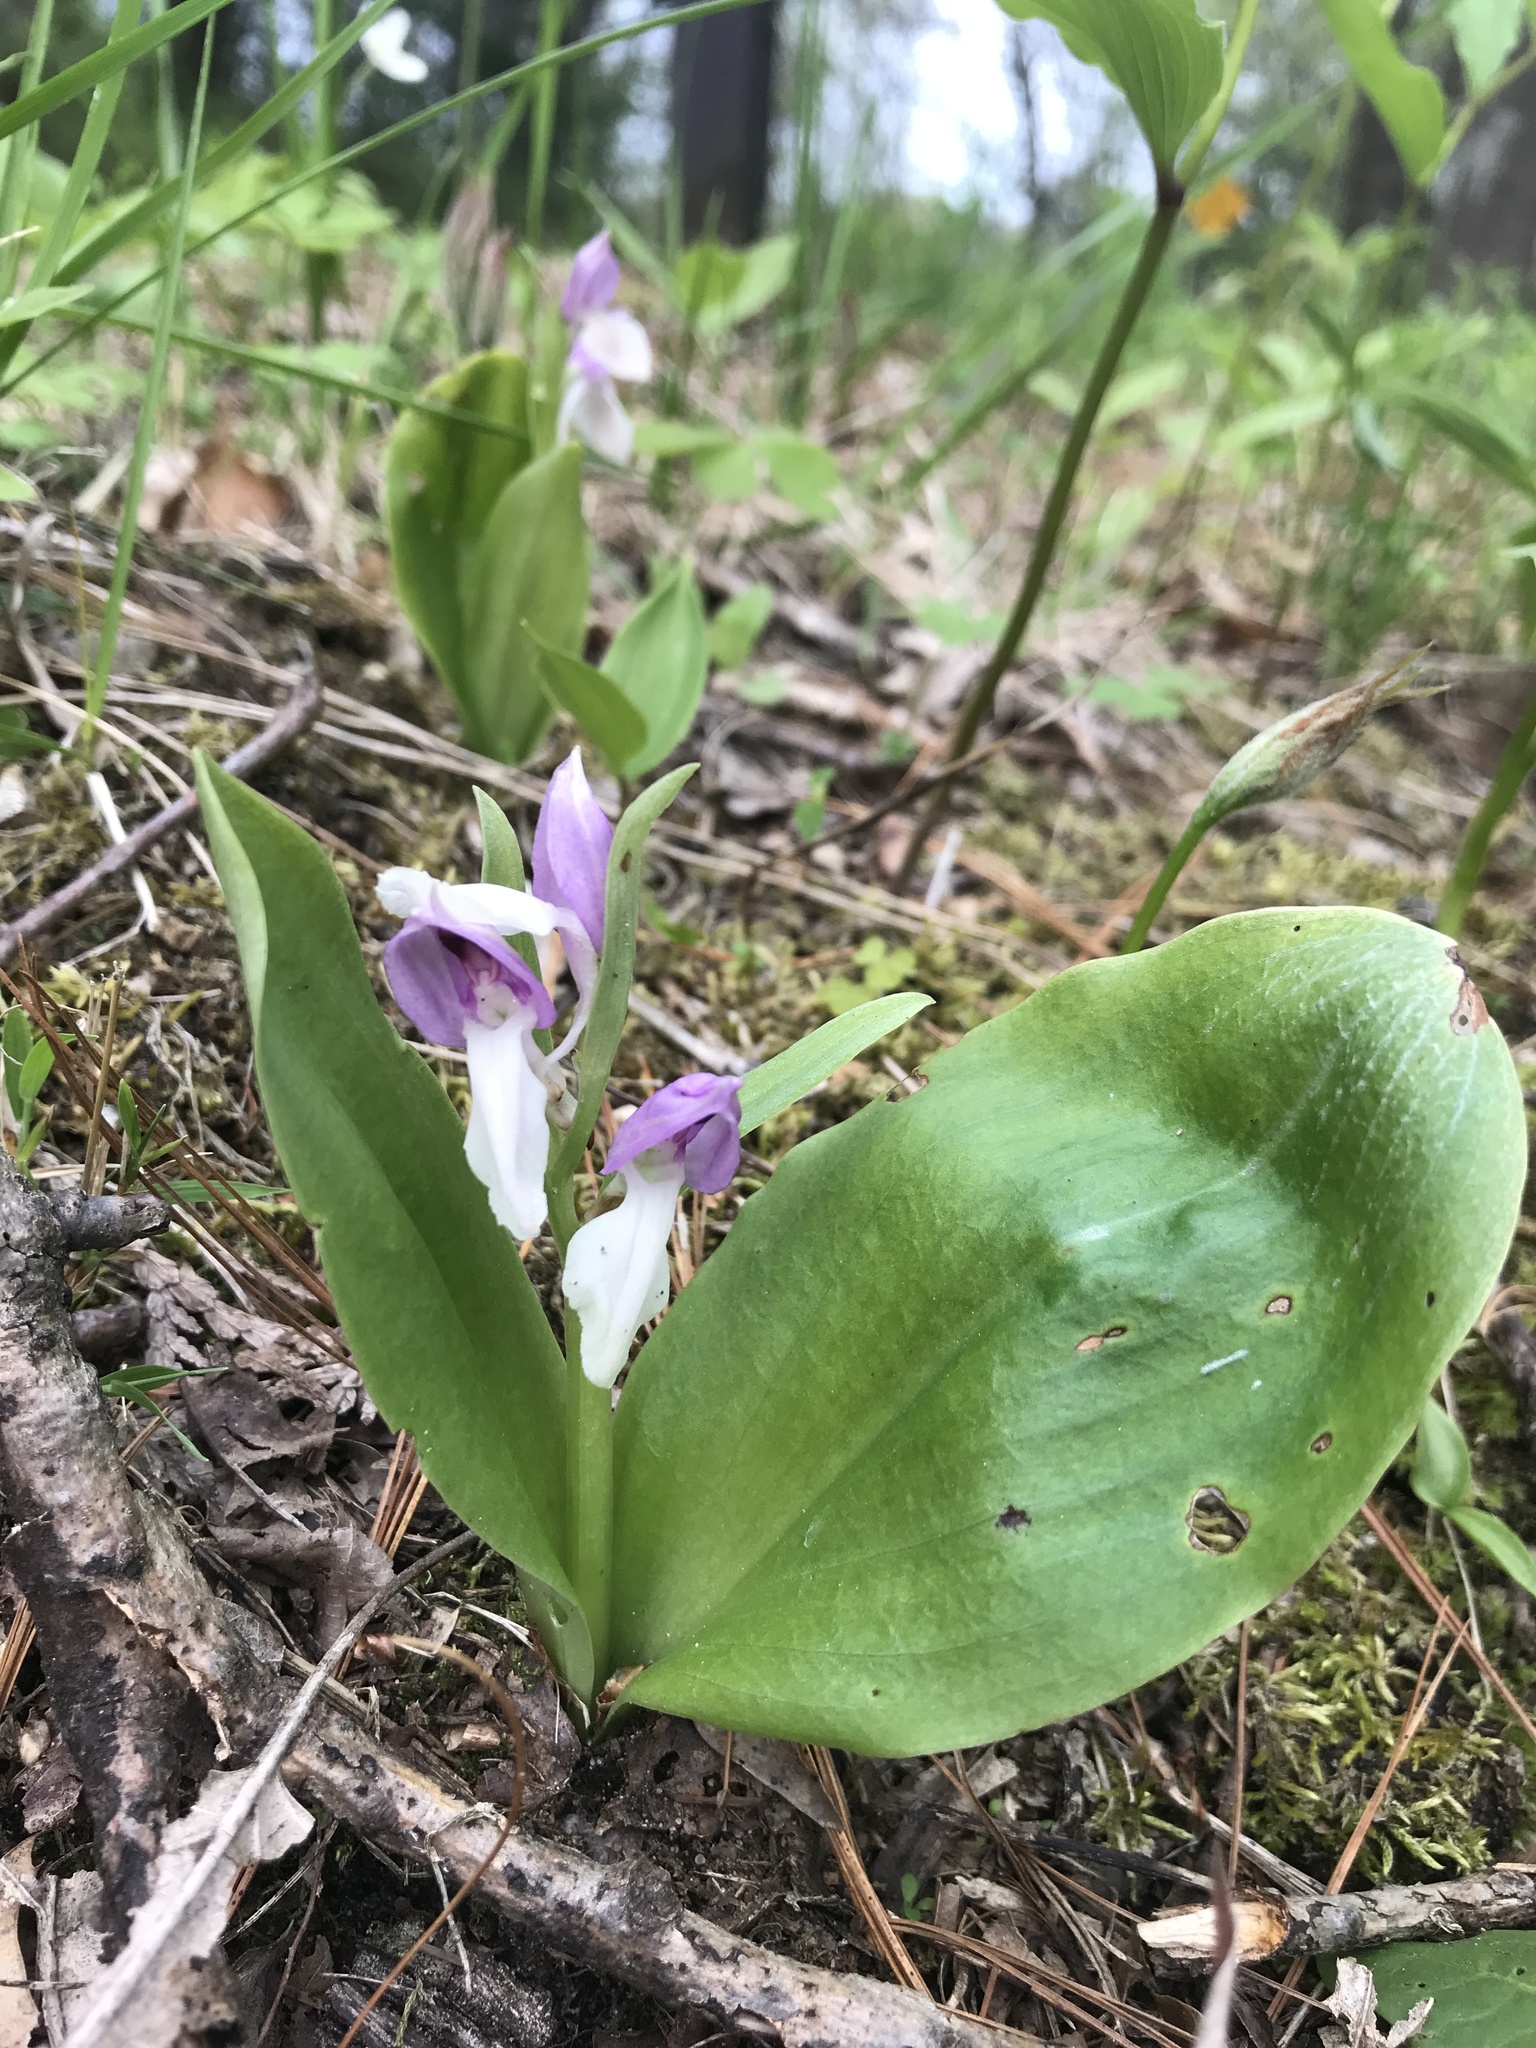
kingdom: Plantae
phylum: Tracheophyta
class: Liliopsida
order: Asparagales
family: Orchidaceae
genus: Galearis
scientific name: Galearis spectabilis
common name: Purple-hooded orchis
